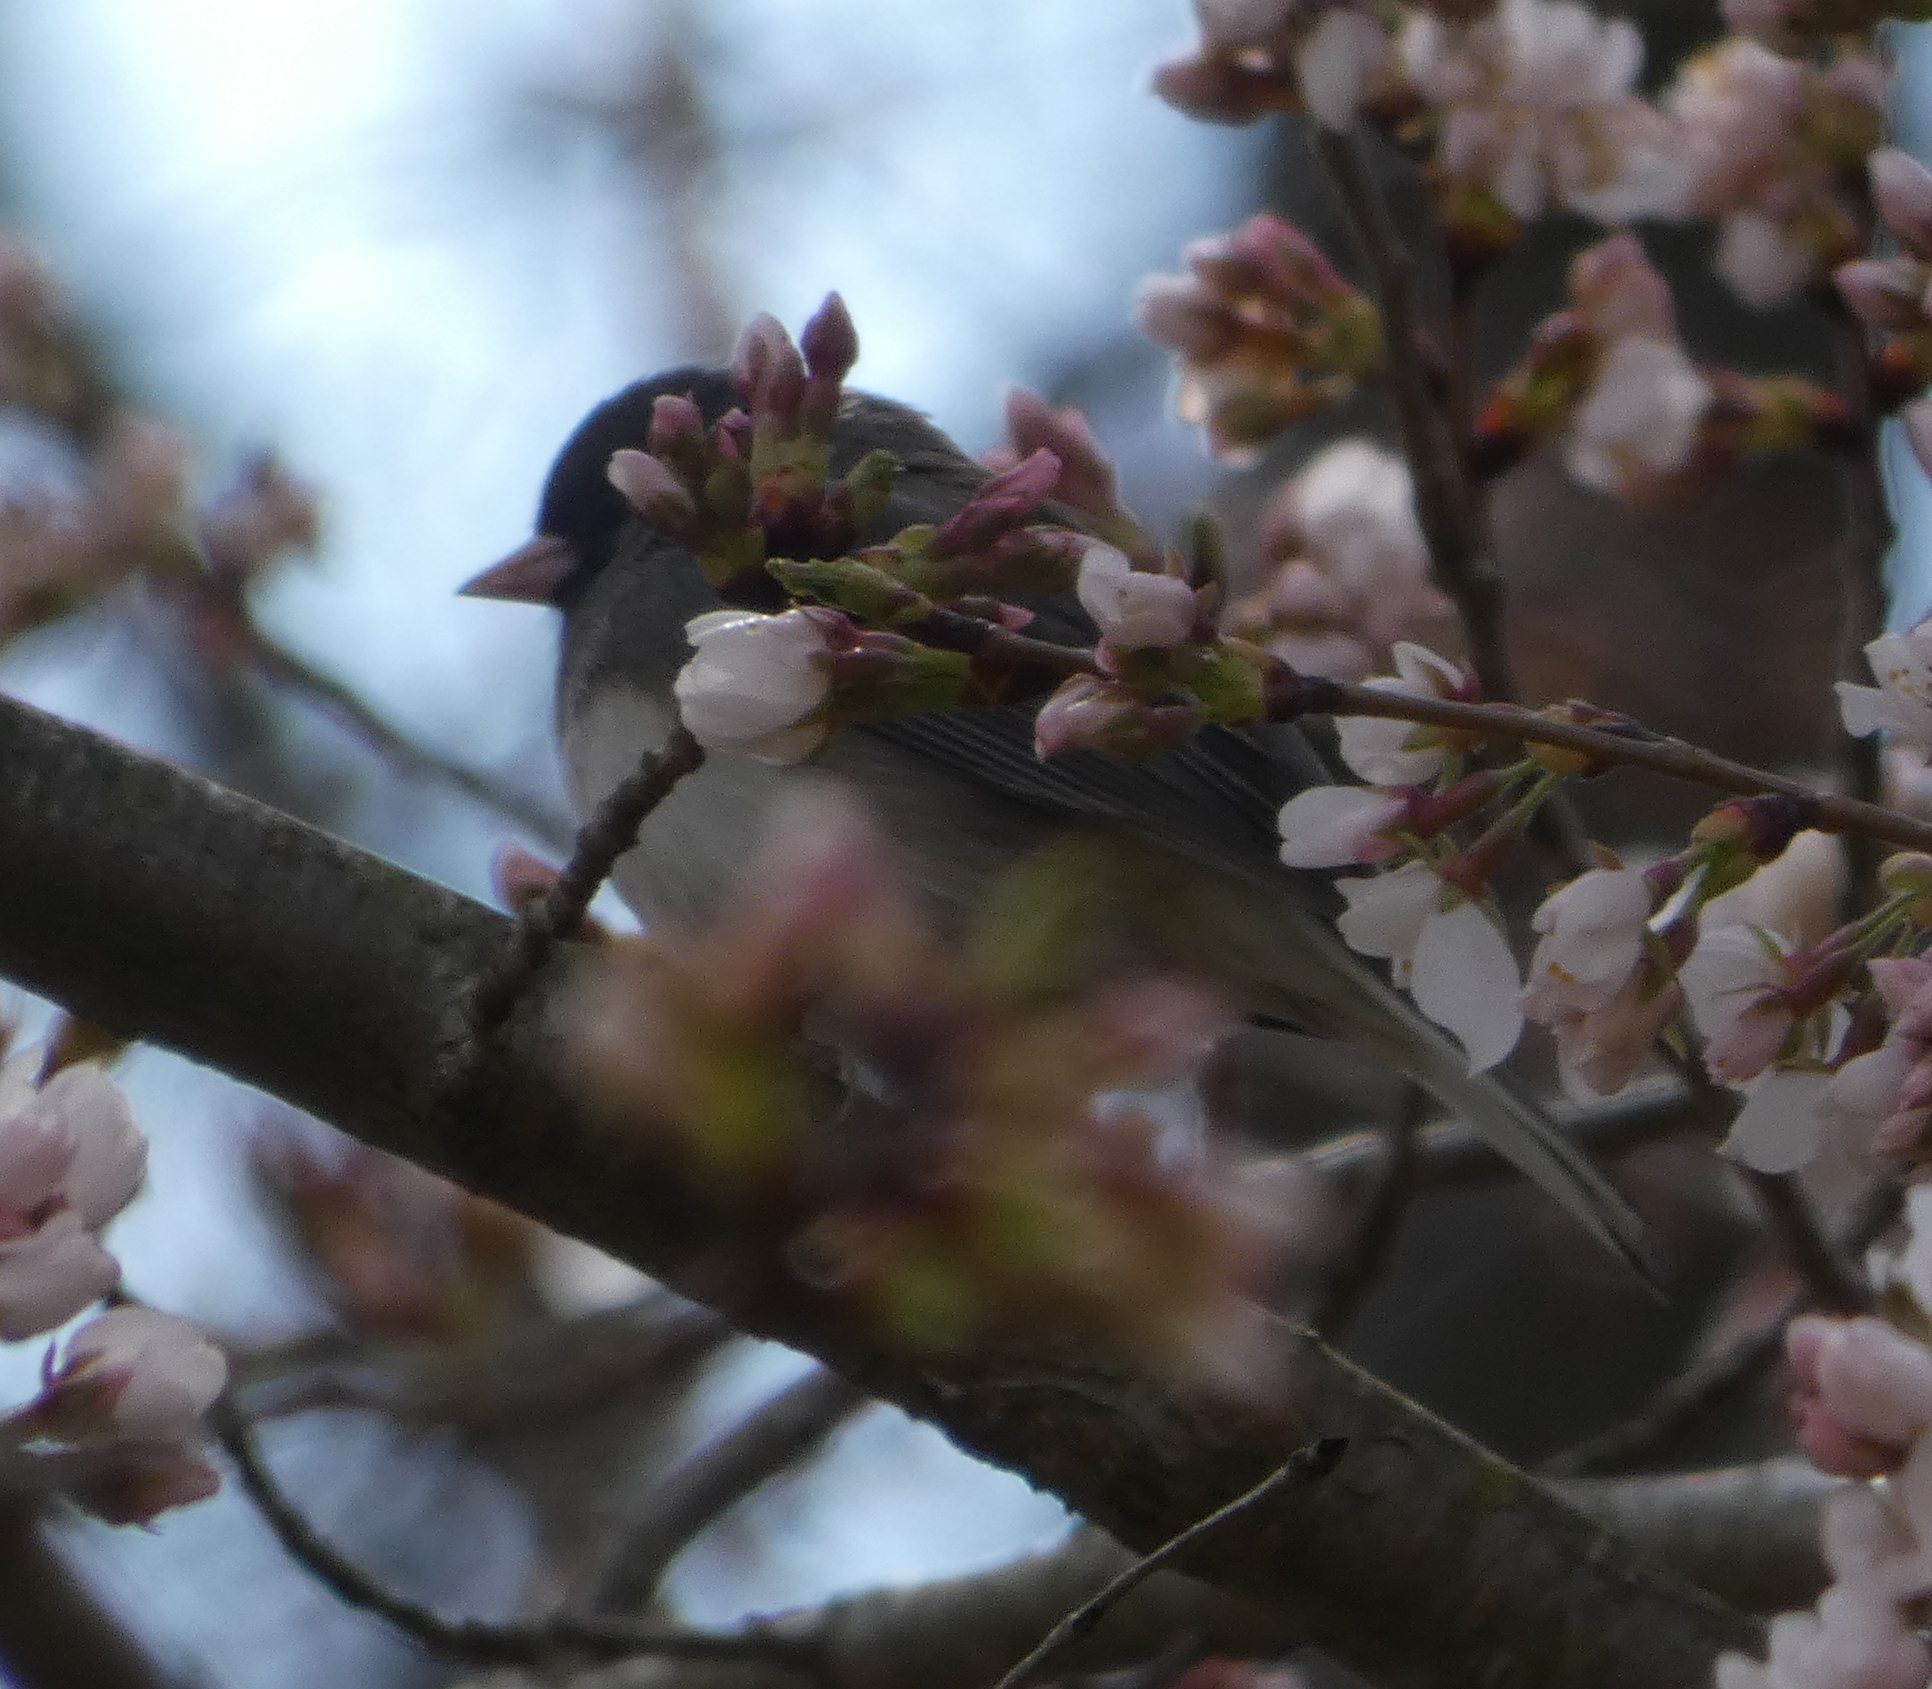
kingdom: Animalia
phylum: Chordata
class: Aves
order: Passeriformes
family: Passerellidae
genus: Junco
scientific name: Junco hyemalis
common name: Dark-eyed junco
